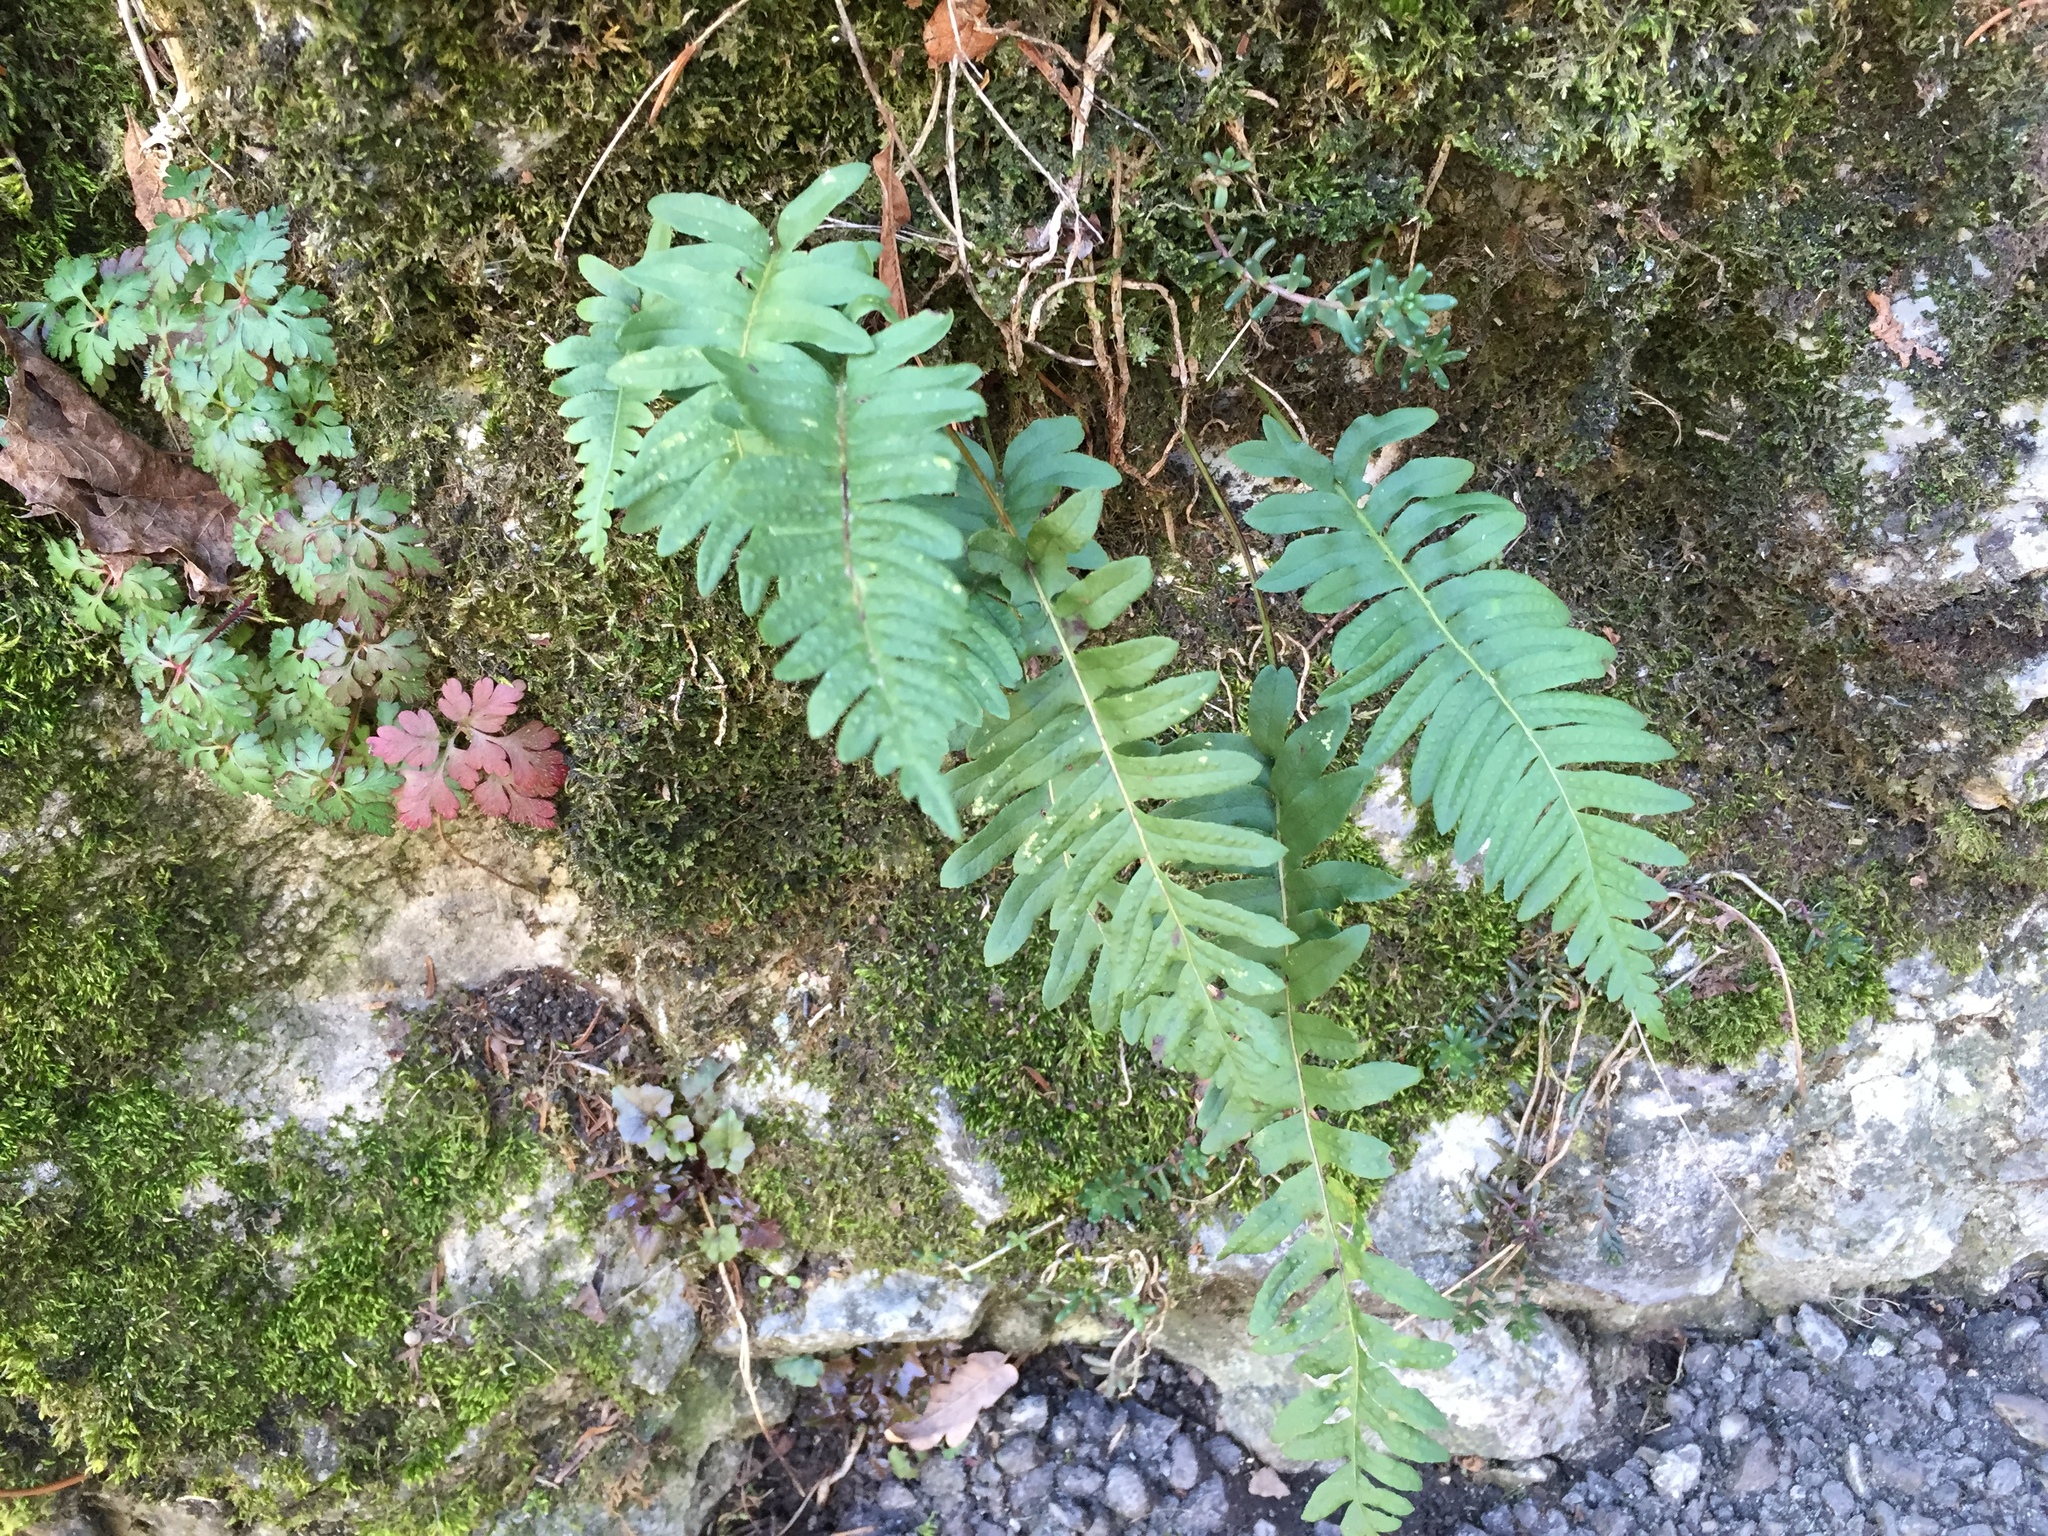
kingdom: Plantae
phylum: Tracheophyta
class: Polypodiopsida
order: Polypodiales
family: Polypodiaceae
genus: Polypodium
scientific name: Polypodium vulgare
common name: Common polypody
